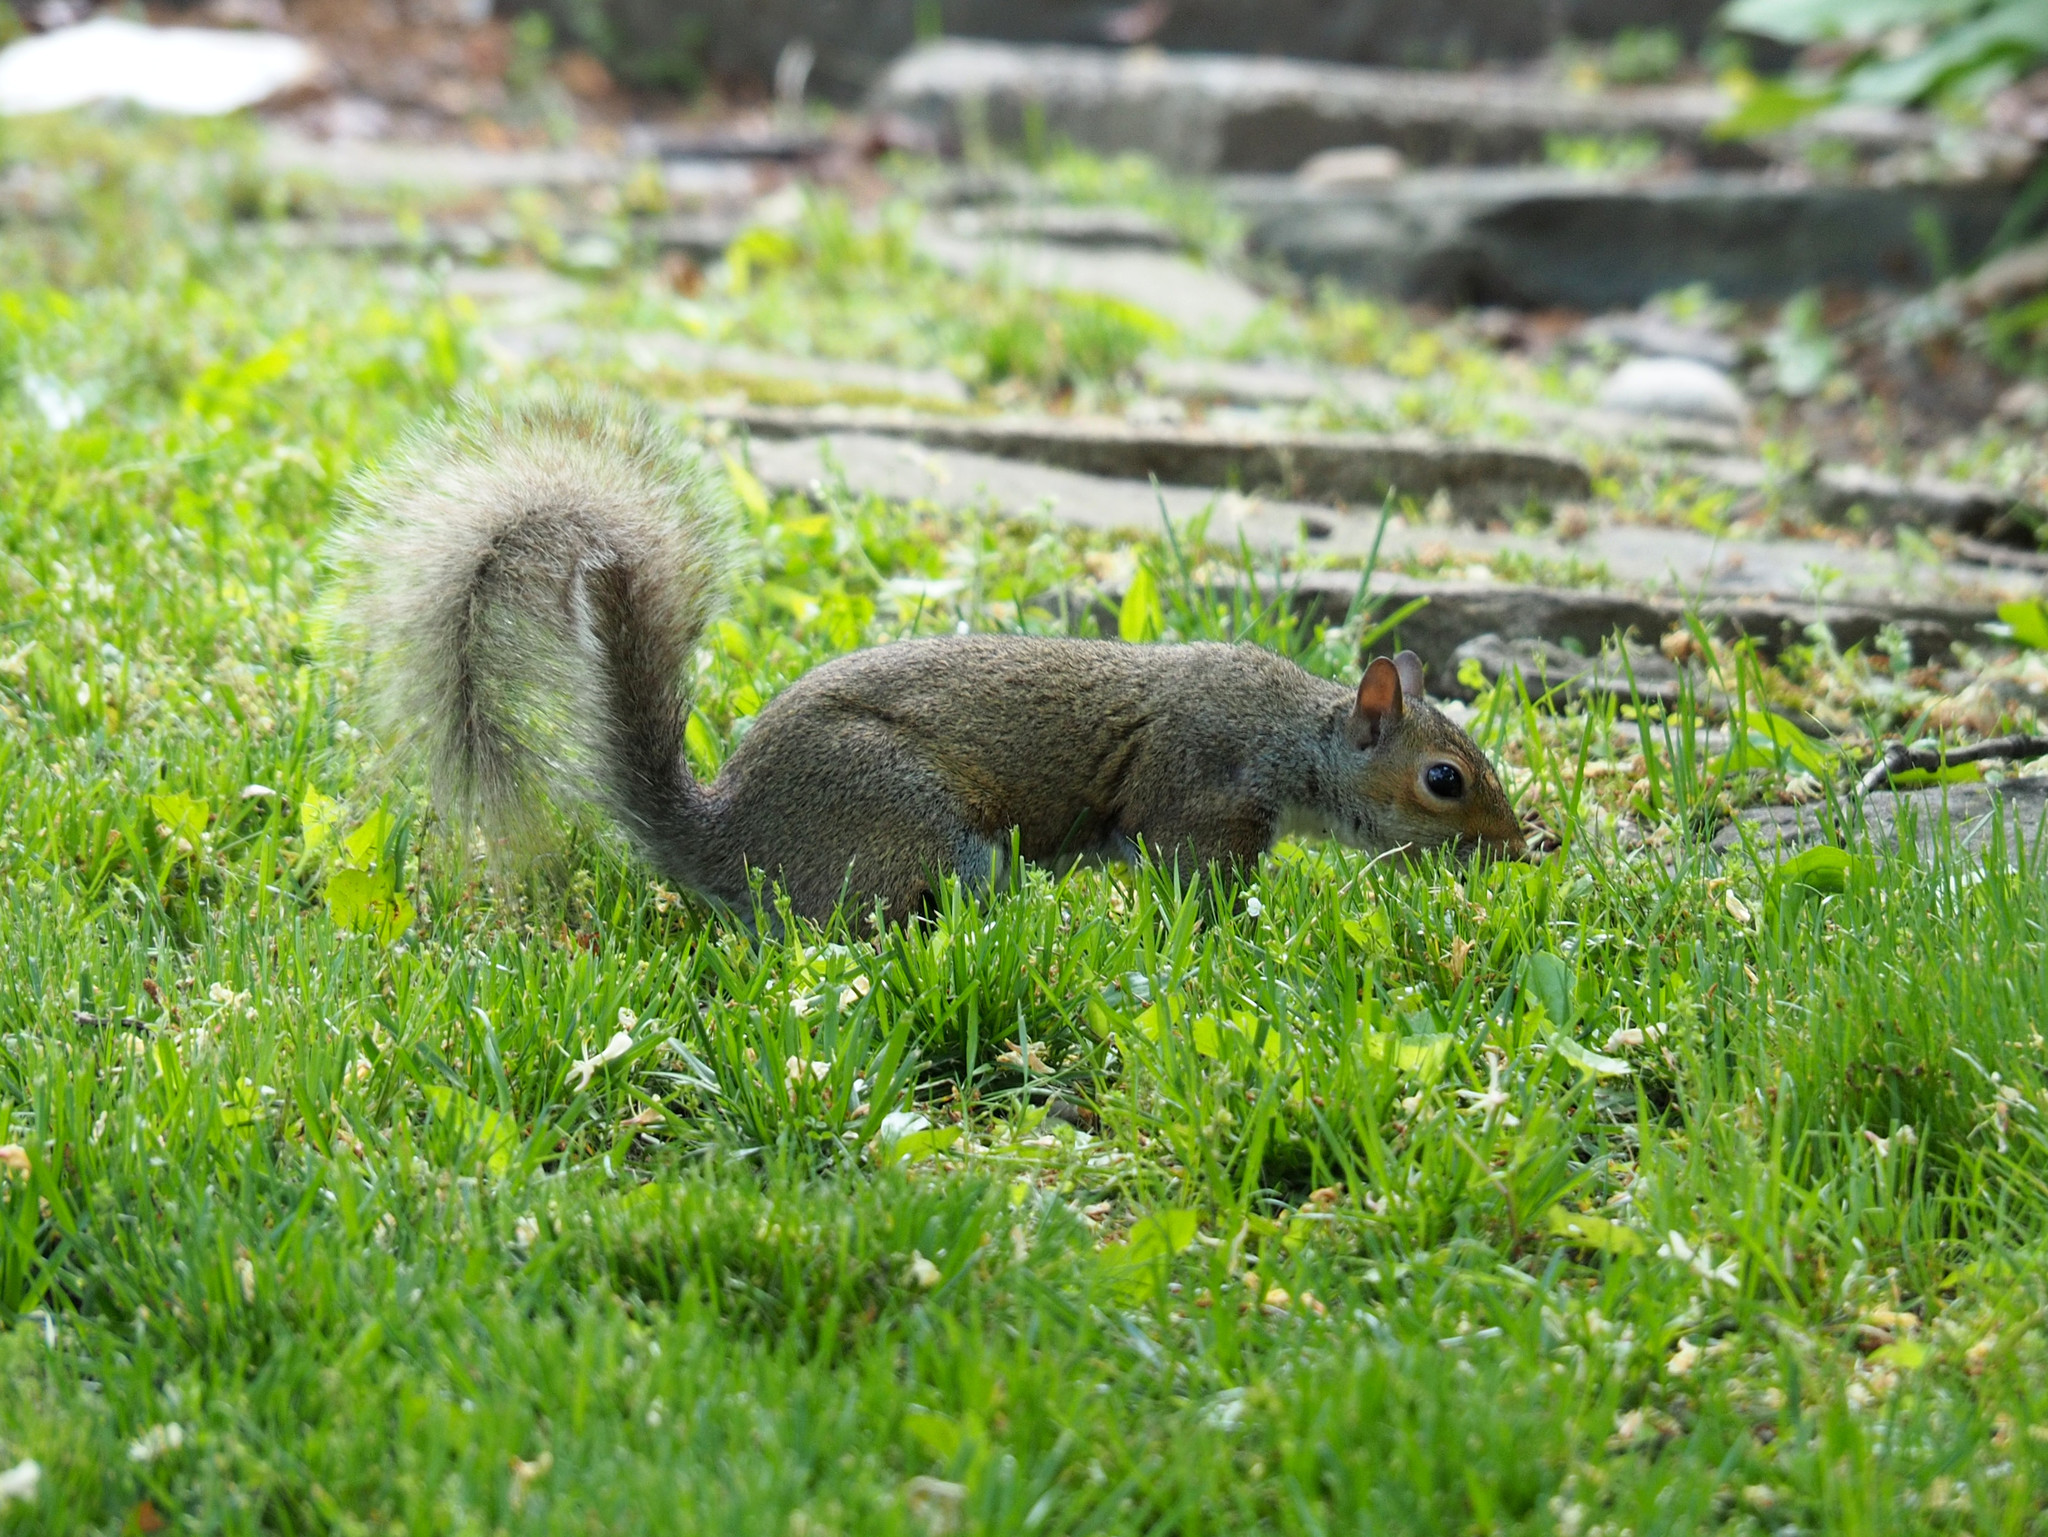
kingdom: Animalia
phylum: Chordata
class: Mammalia
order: Rodentia
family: Sciuridae
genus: Sciurus
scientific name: Sciurus carolinensis
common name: Eastern gray squirrel
